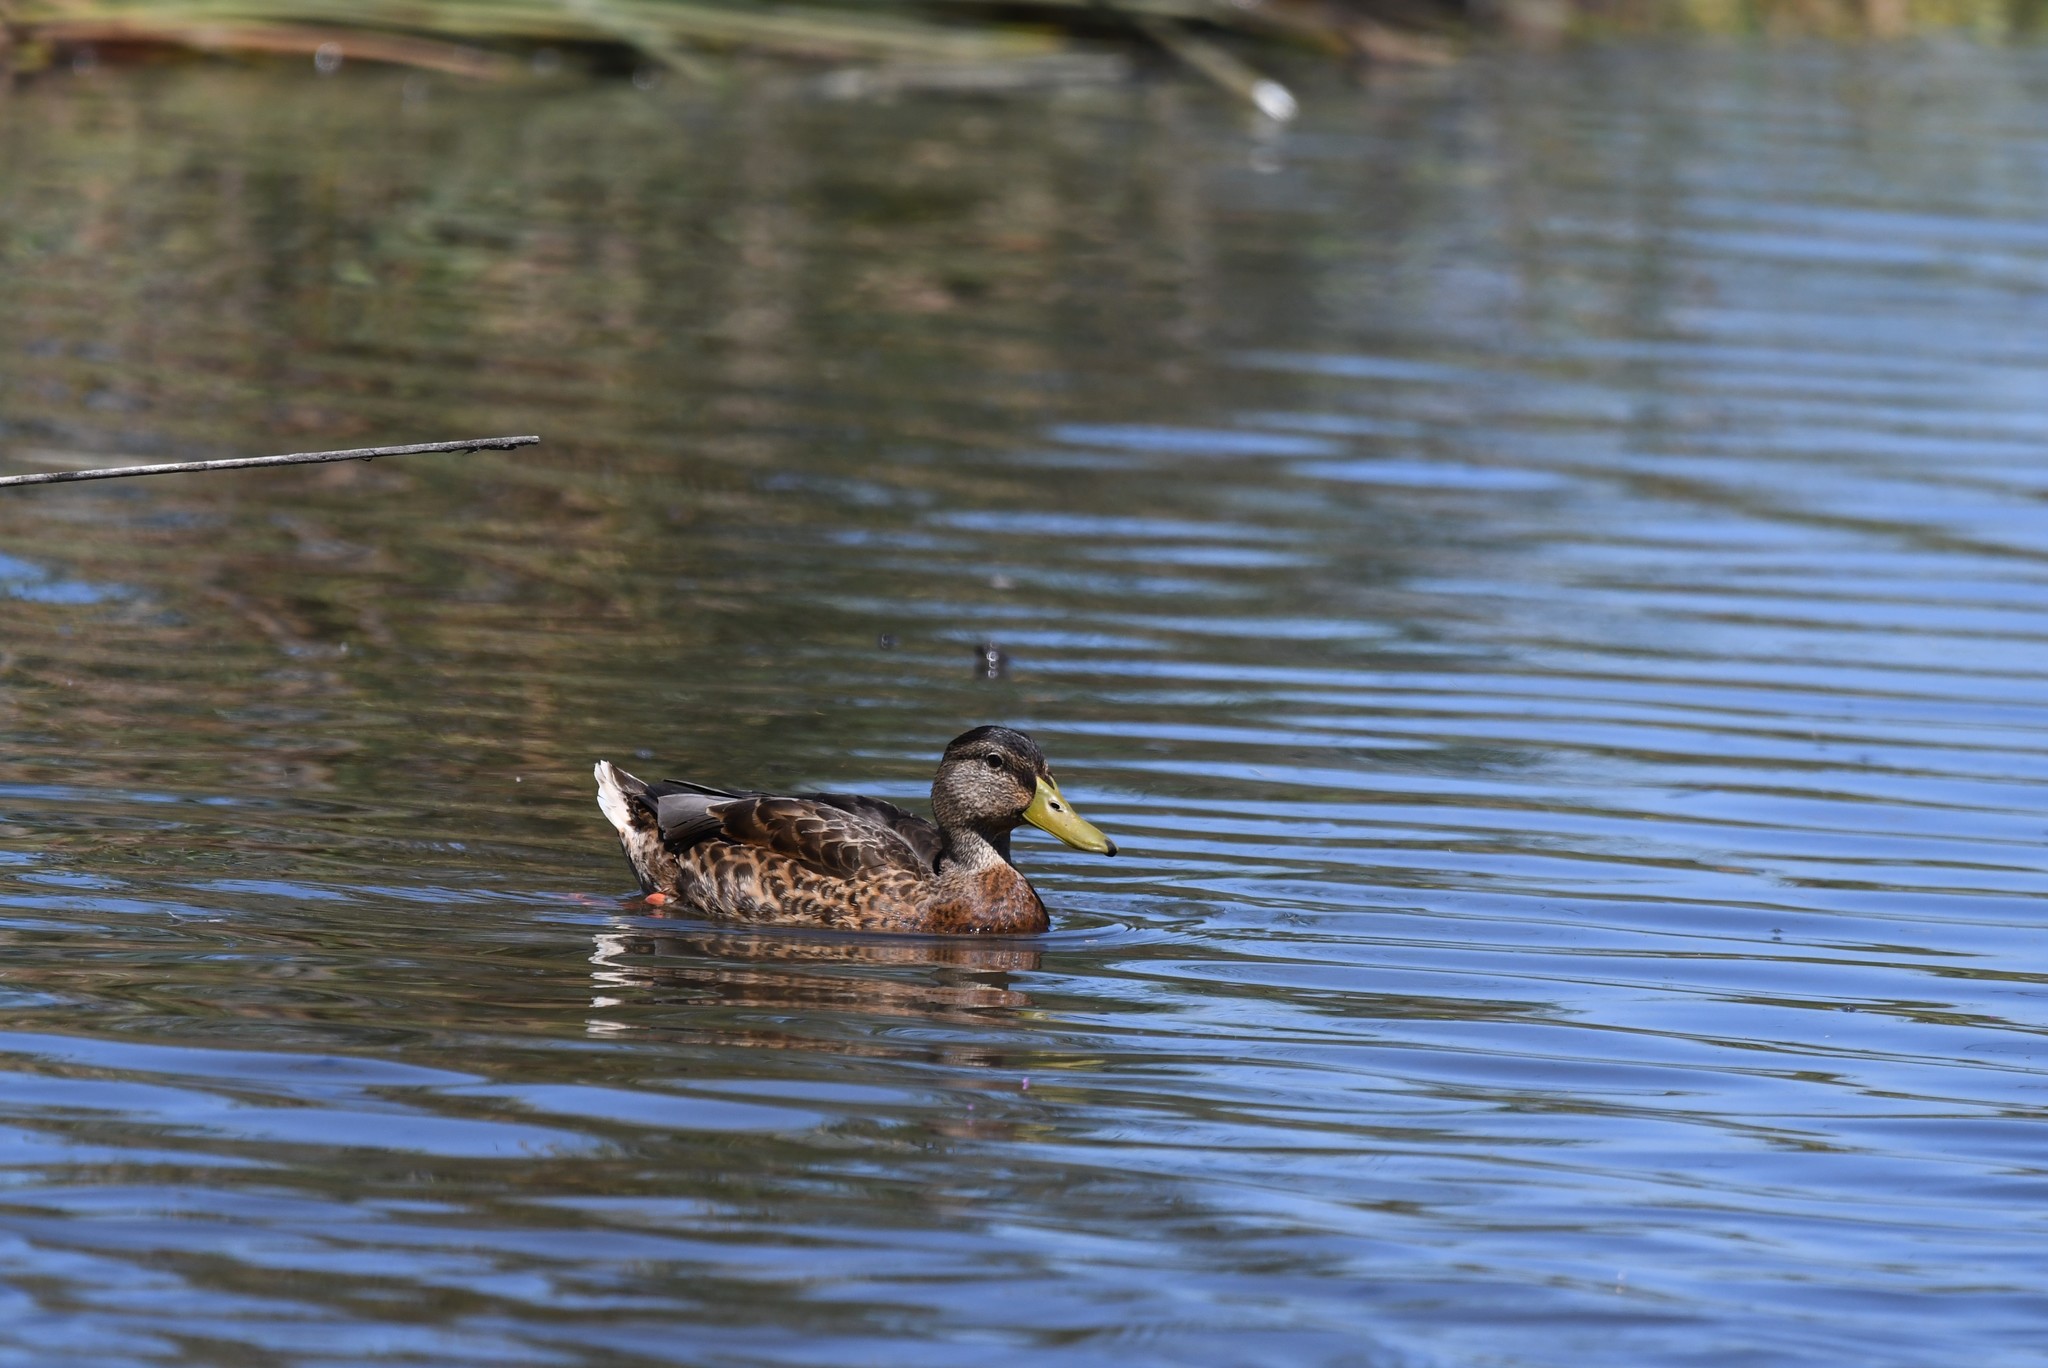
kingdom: Animalia
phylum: Chordata
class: Aves
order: Anseriformes
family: Anatidae
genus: Anas
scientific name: Anas platyrhynchos
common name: Mallard
